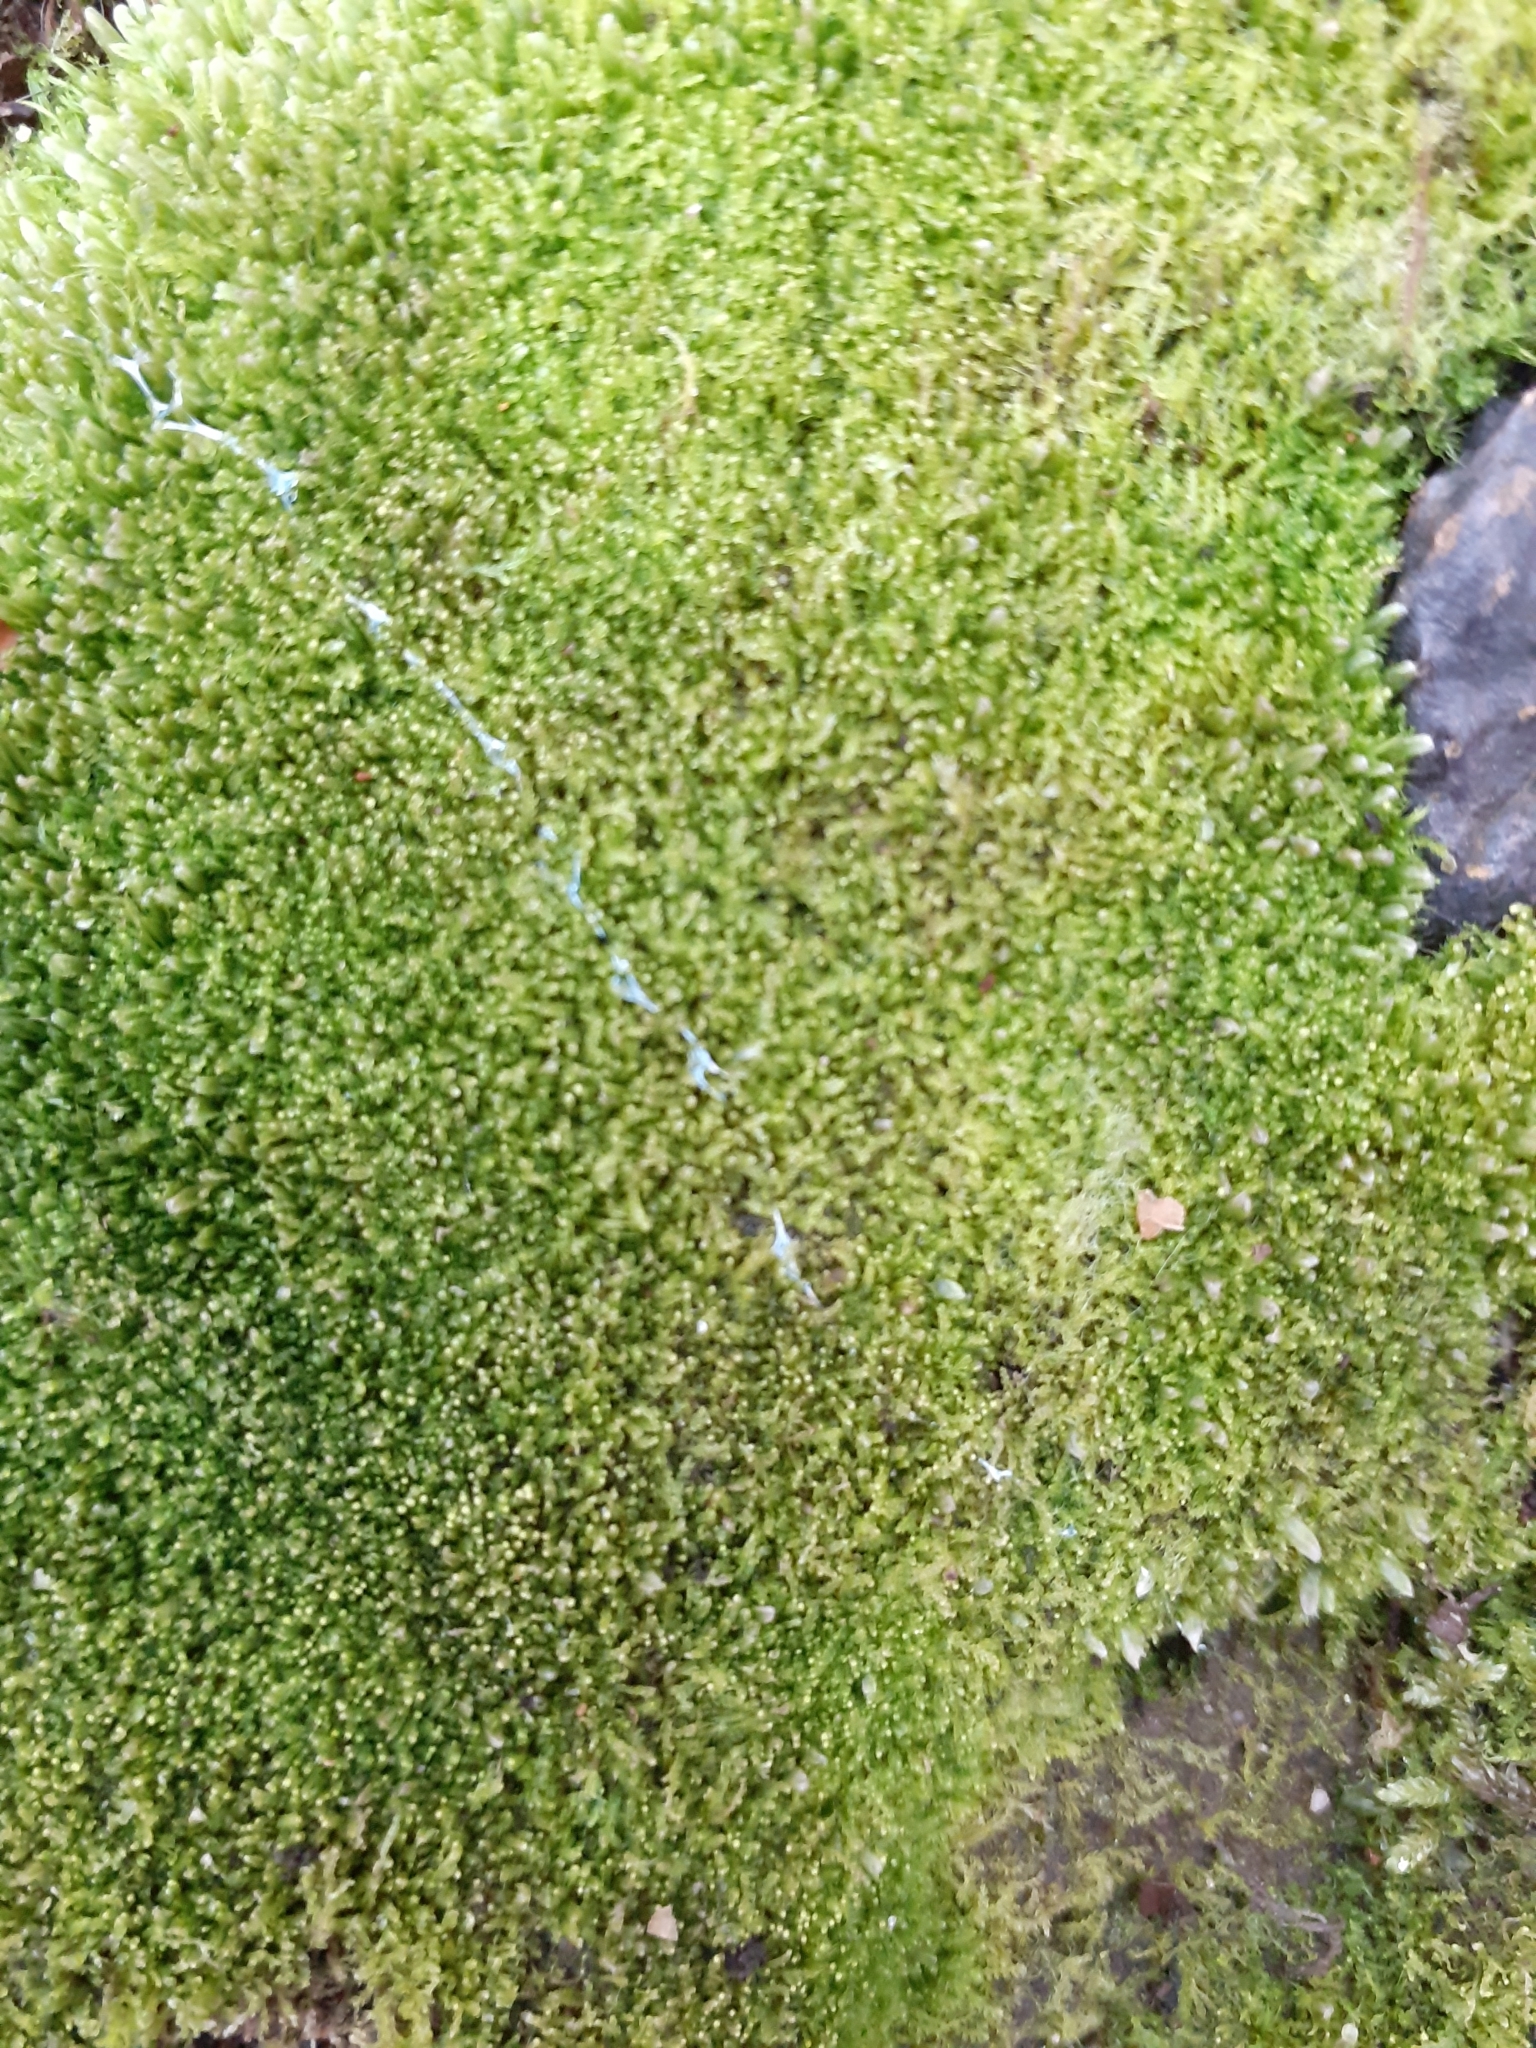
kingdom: Plantae
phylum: Marchantiophyta
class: Jungermanniopsida
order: Jungermanniales
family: Cephaloziaceae
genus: Cephalozia
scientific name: Cephalozia bicuspidata
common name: Two-horned pincerwort
